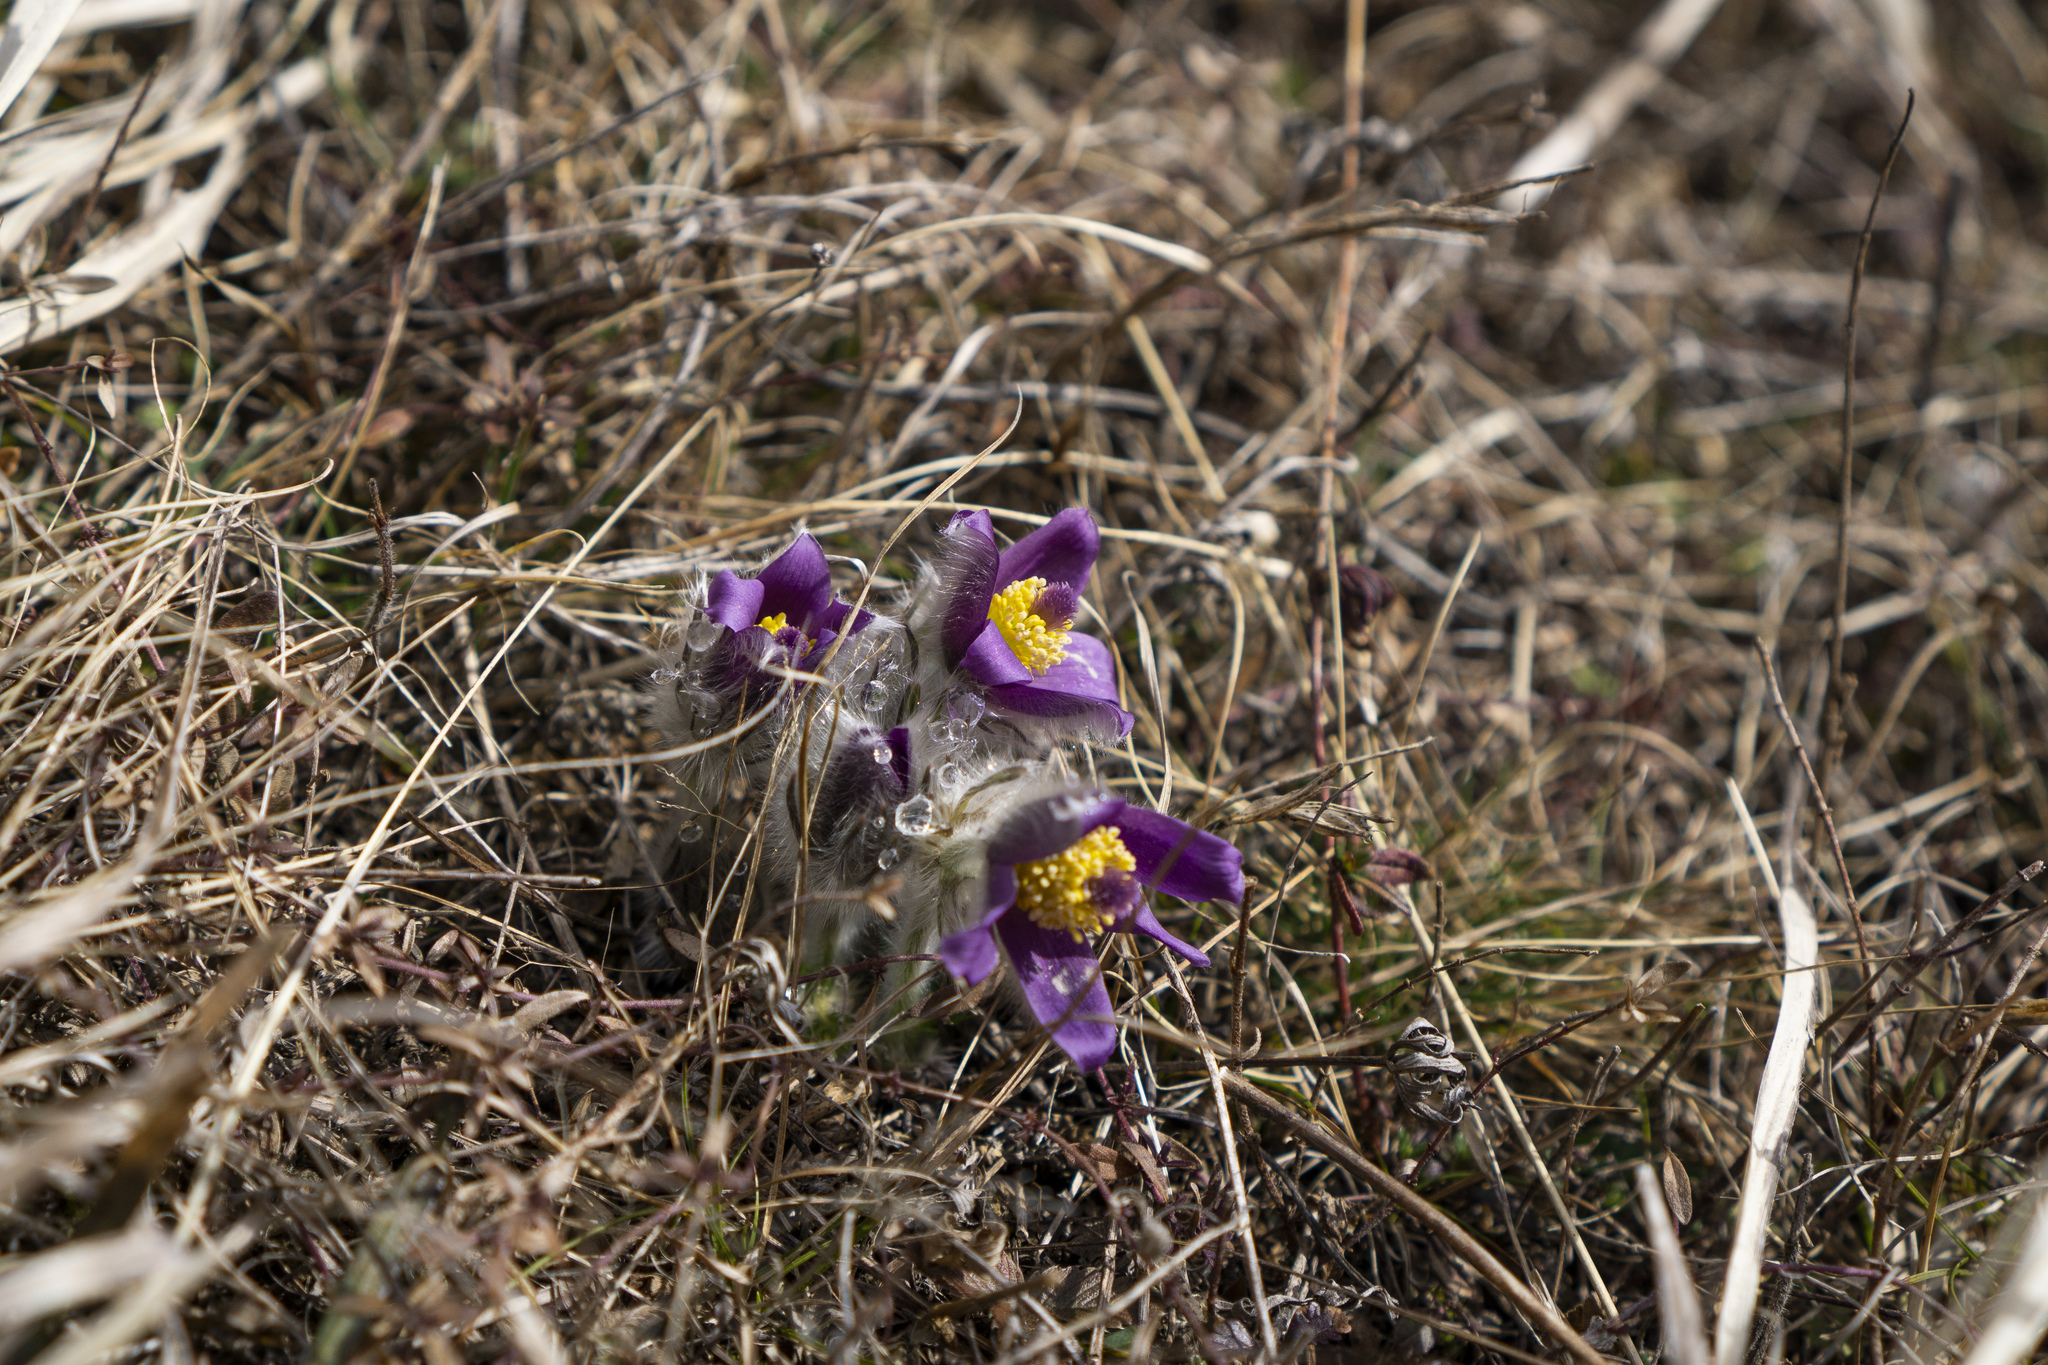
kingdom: Plantae
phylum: Tracheophyta
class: Magnoliopsida
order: Ranunculales
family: Ranunculaceae
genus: Pulsatilla
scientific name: Pulsatilla grandis
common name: Greater pasque flower
